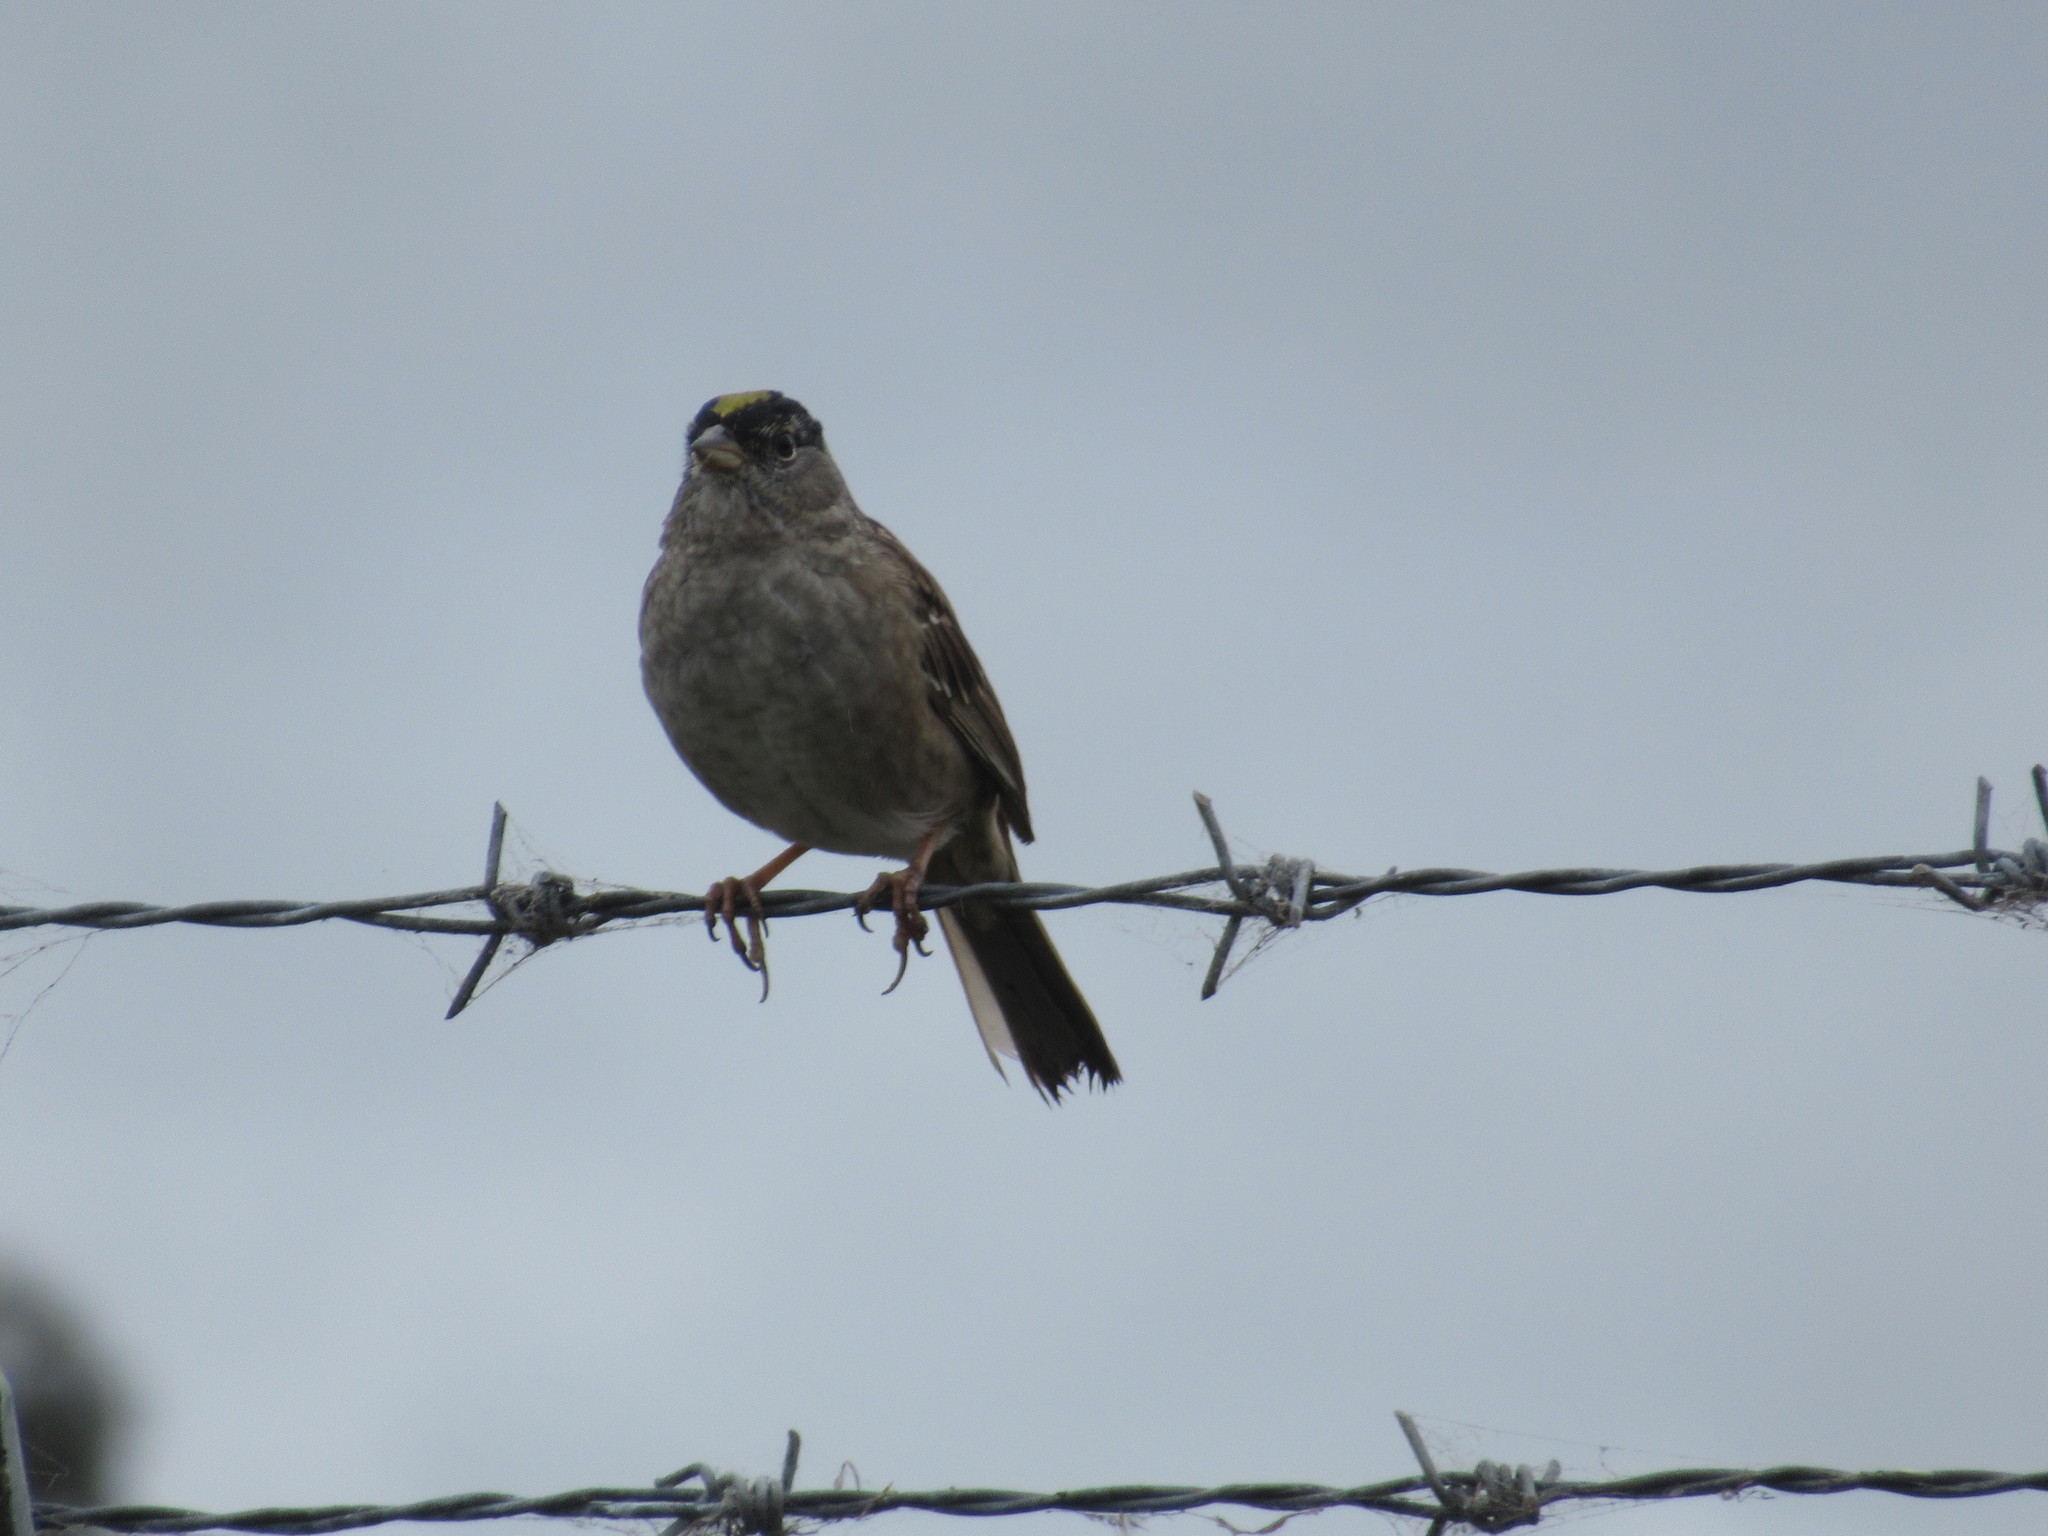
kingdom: Animalia
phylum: Chordata
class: Aves
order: Passeriformes
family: Passerellidae
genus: Zonotrichia
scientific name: Zonotrichia atricapilla
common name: Golden-crowned sparrow
